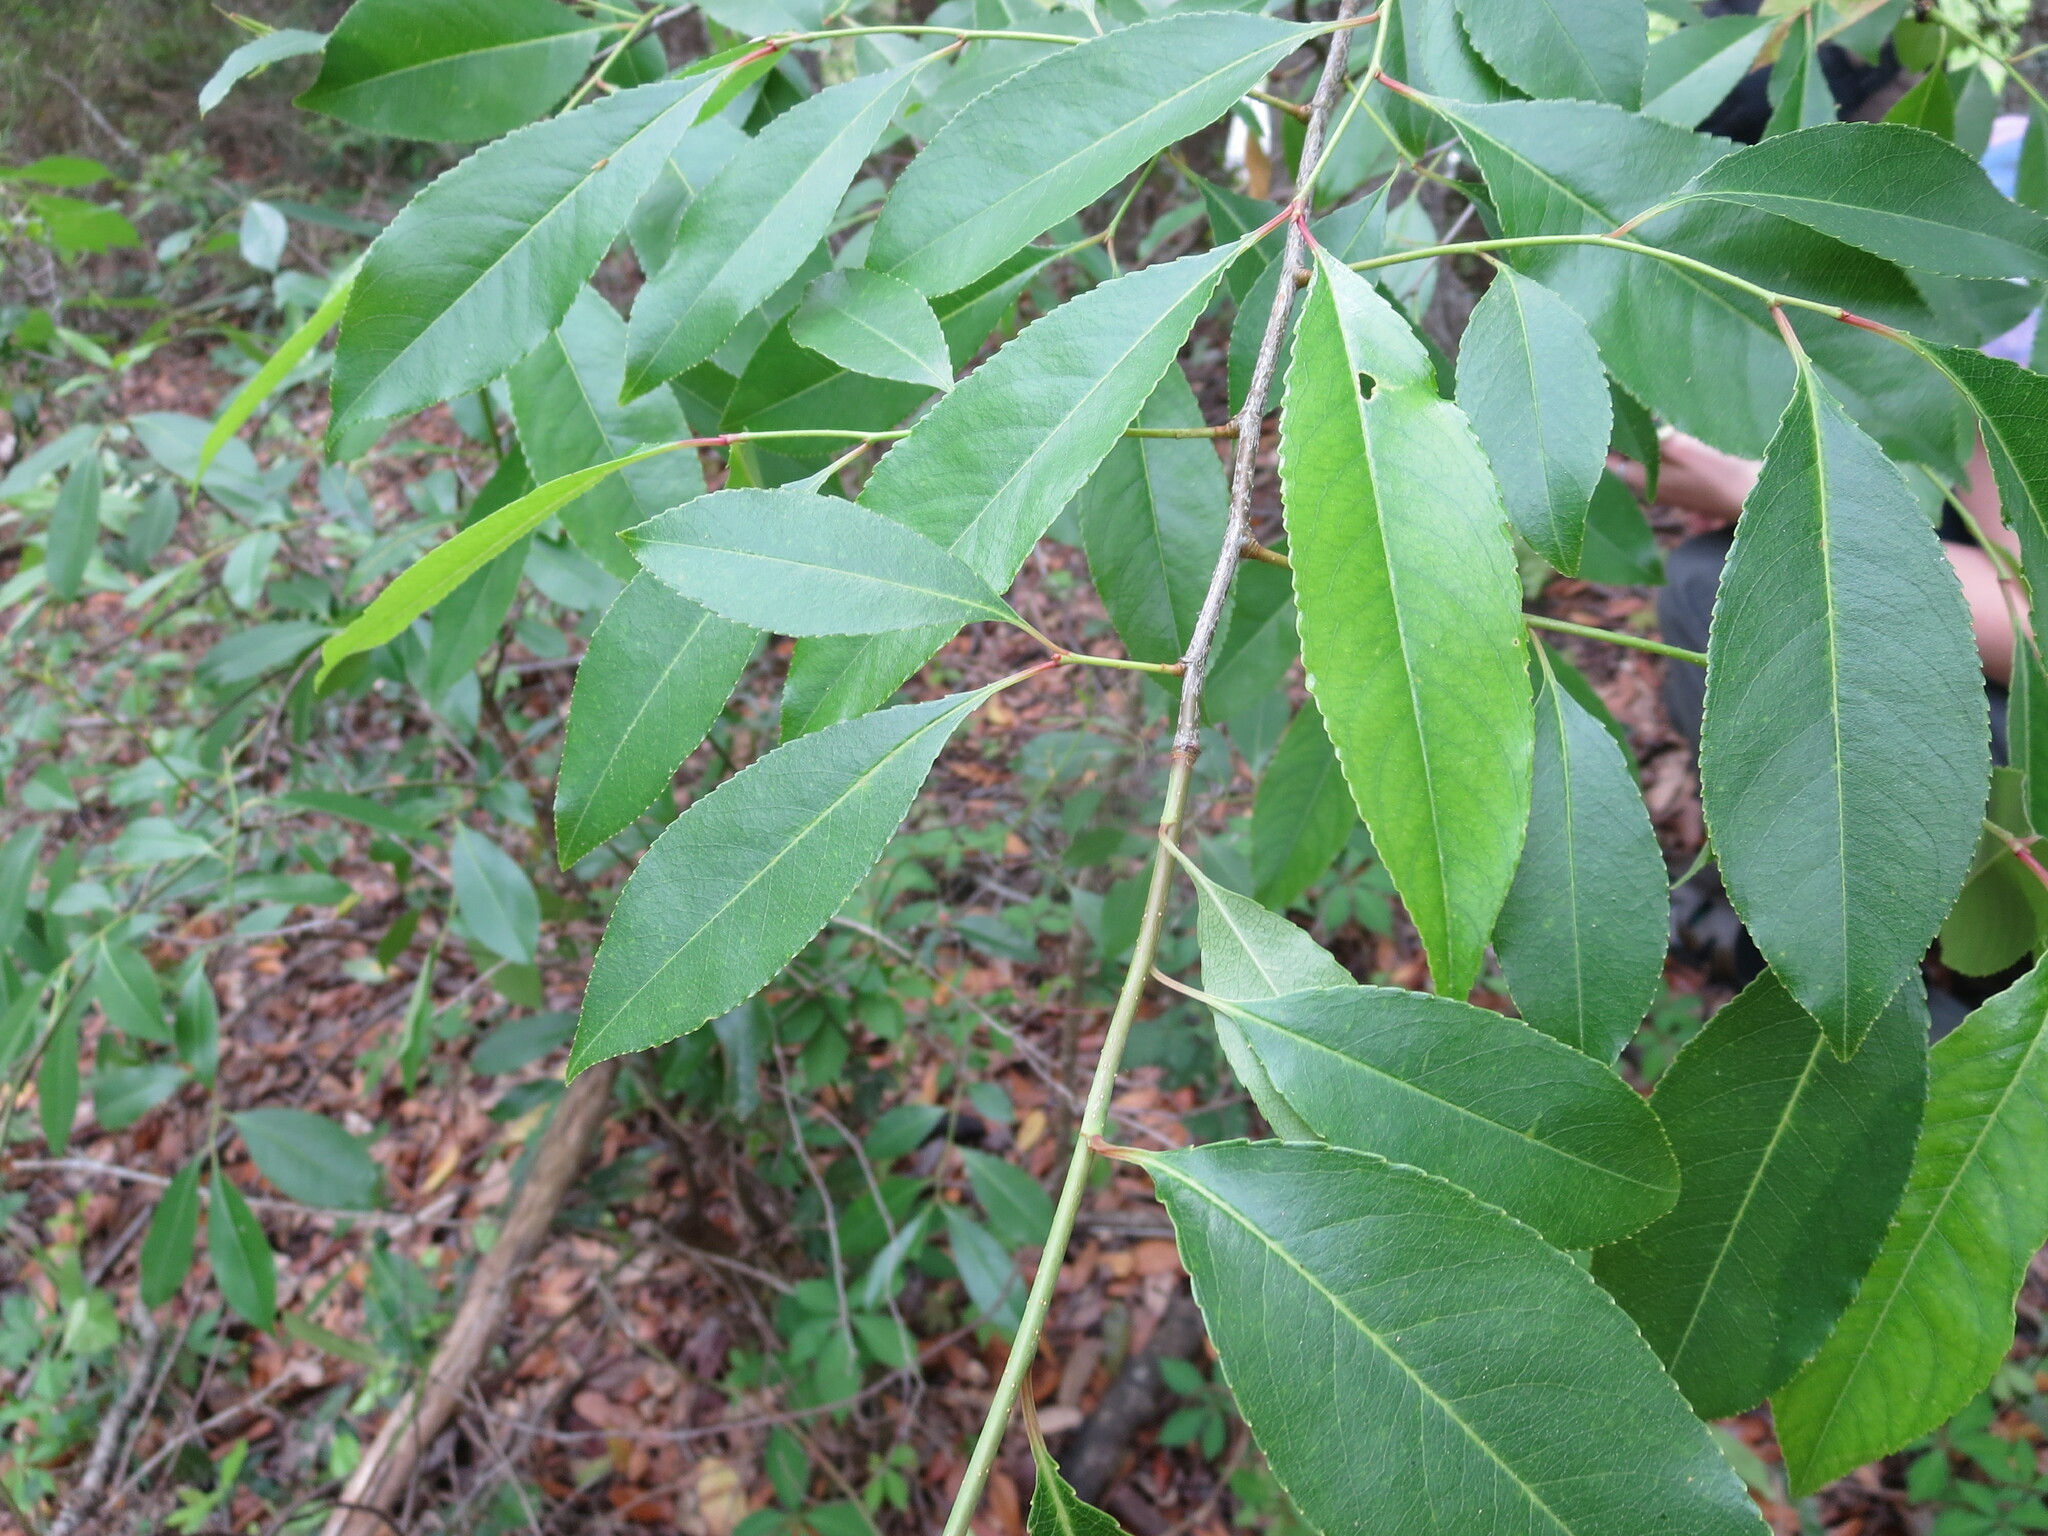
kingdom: Plantae
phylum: Tracheophyta
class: Magnoliopsida
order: Rosales
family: Rosaceae
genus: Prunus
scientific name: Prunus serotina
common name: Black cherry
